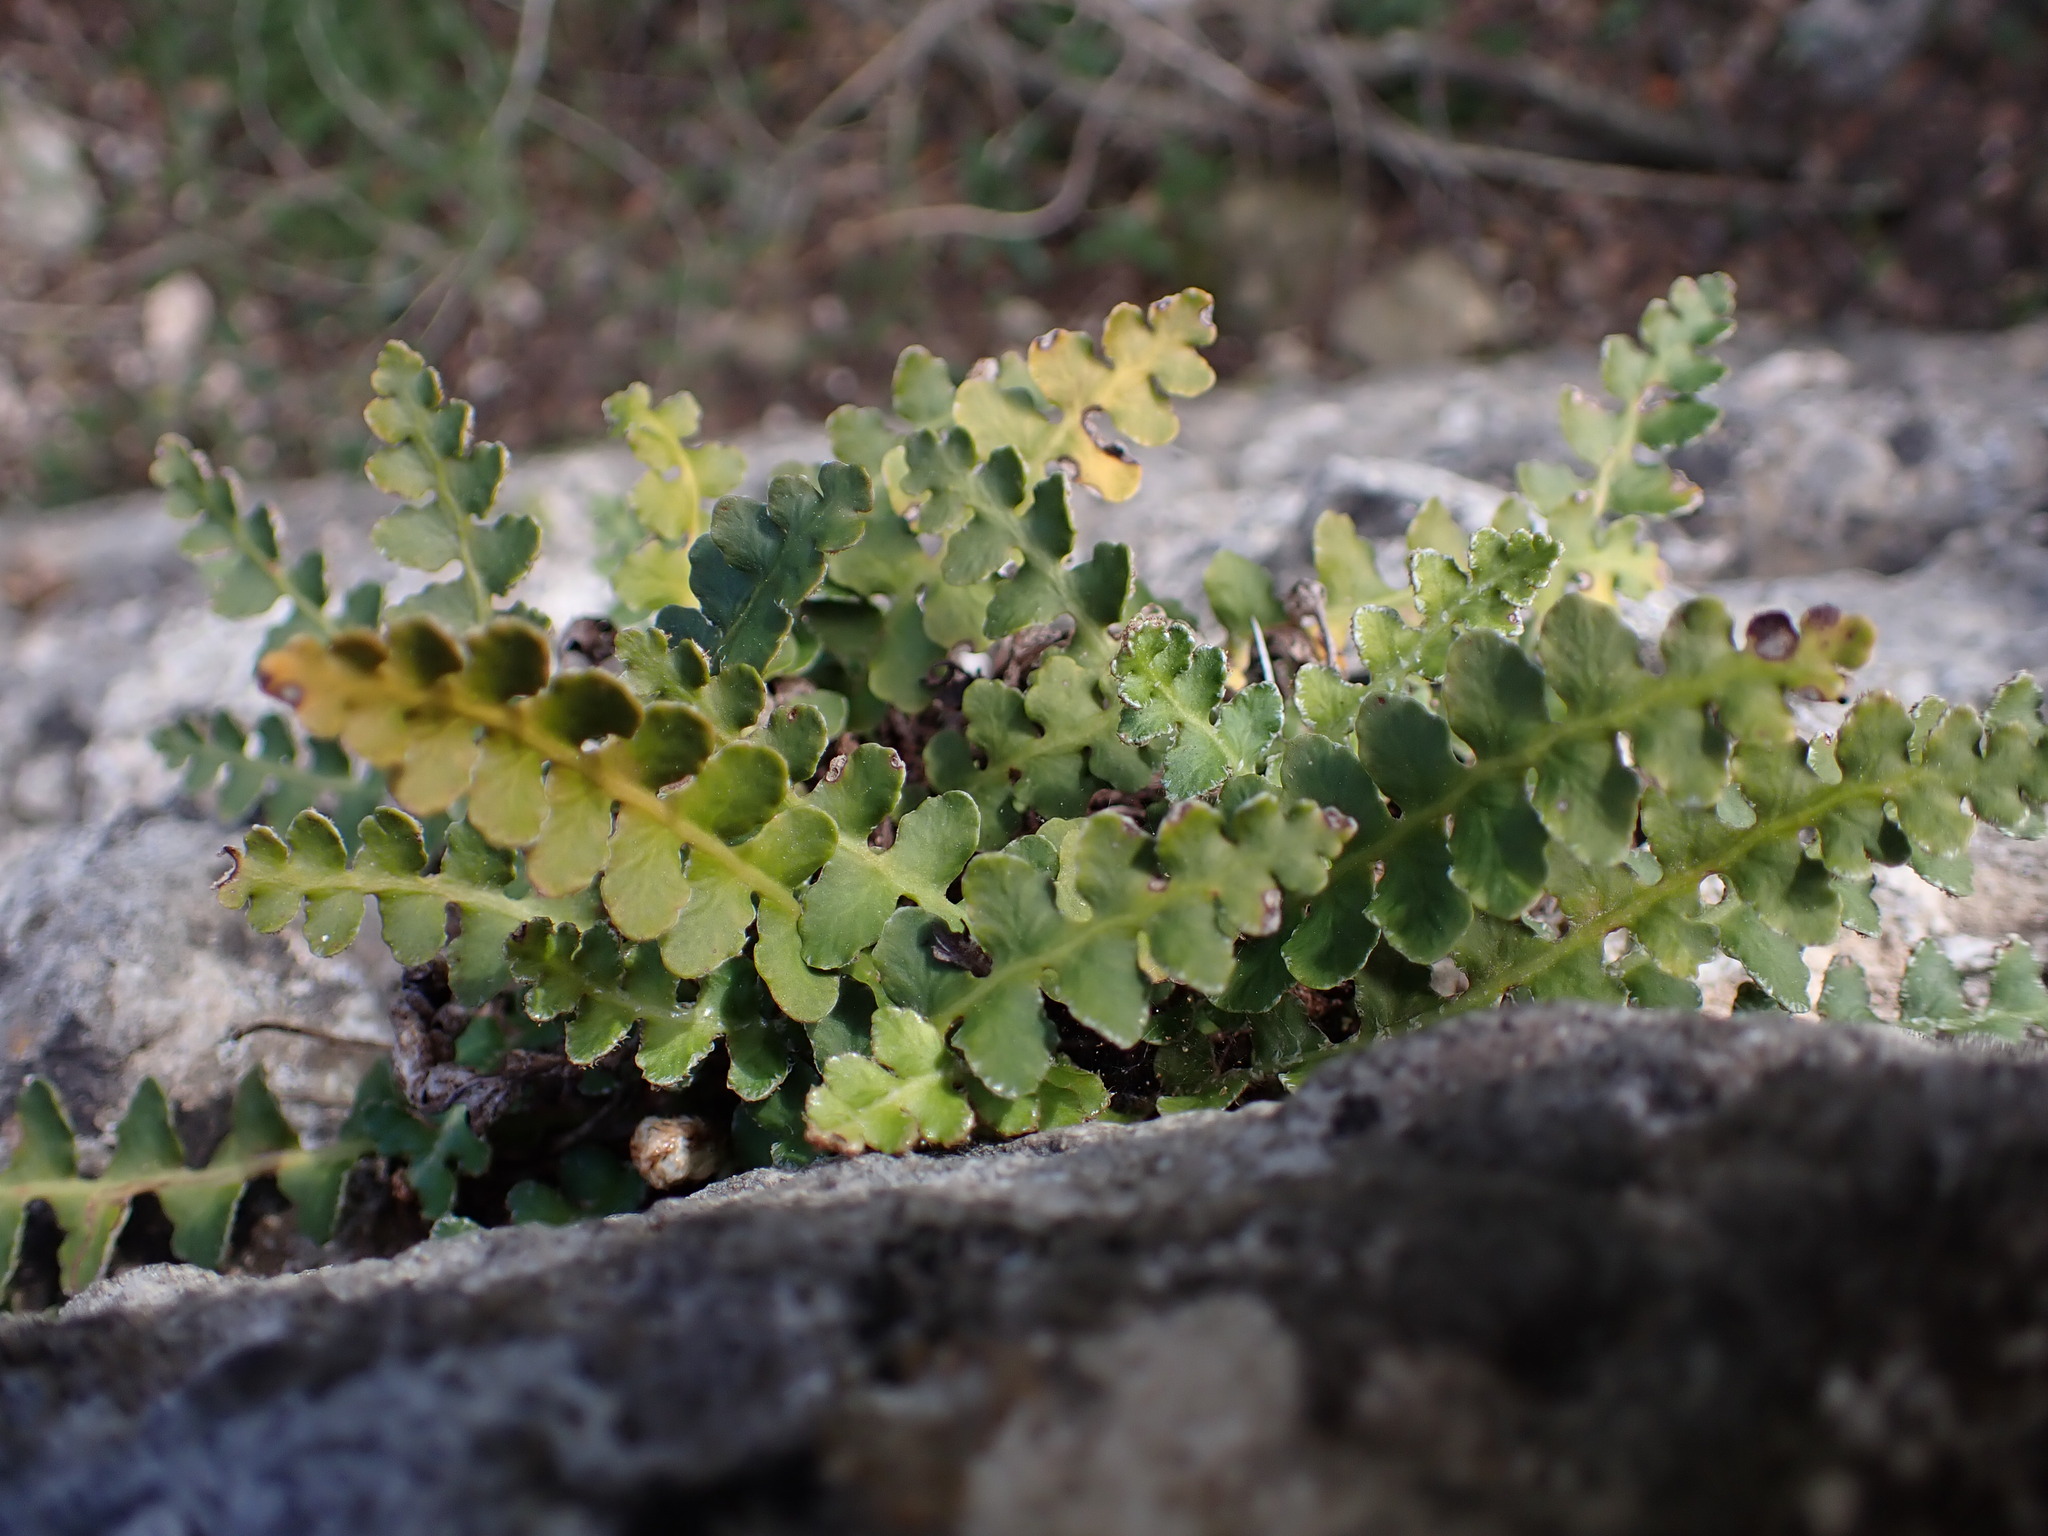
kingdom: Plantae
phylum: Tracheophyta
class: Polypodiopsida
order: Polypodiales
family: Aspleniaceae
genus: Asplenium
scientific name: Asplenium ceterach
